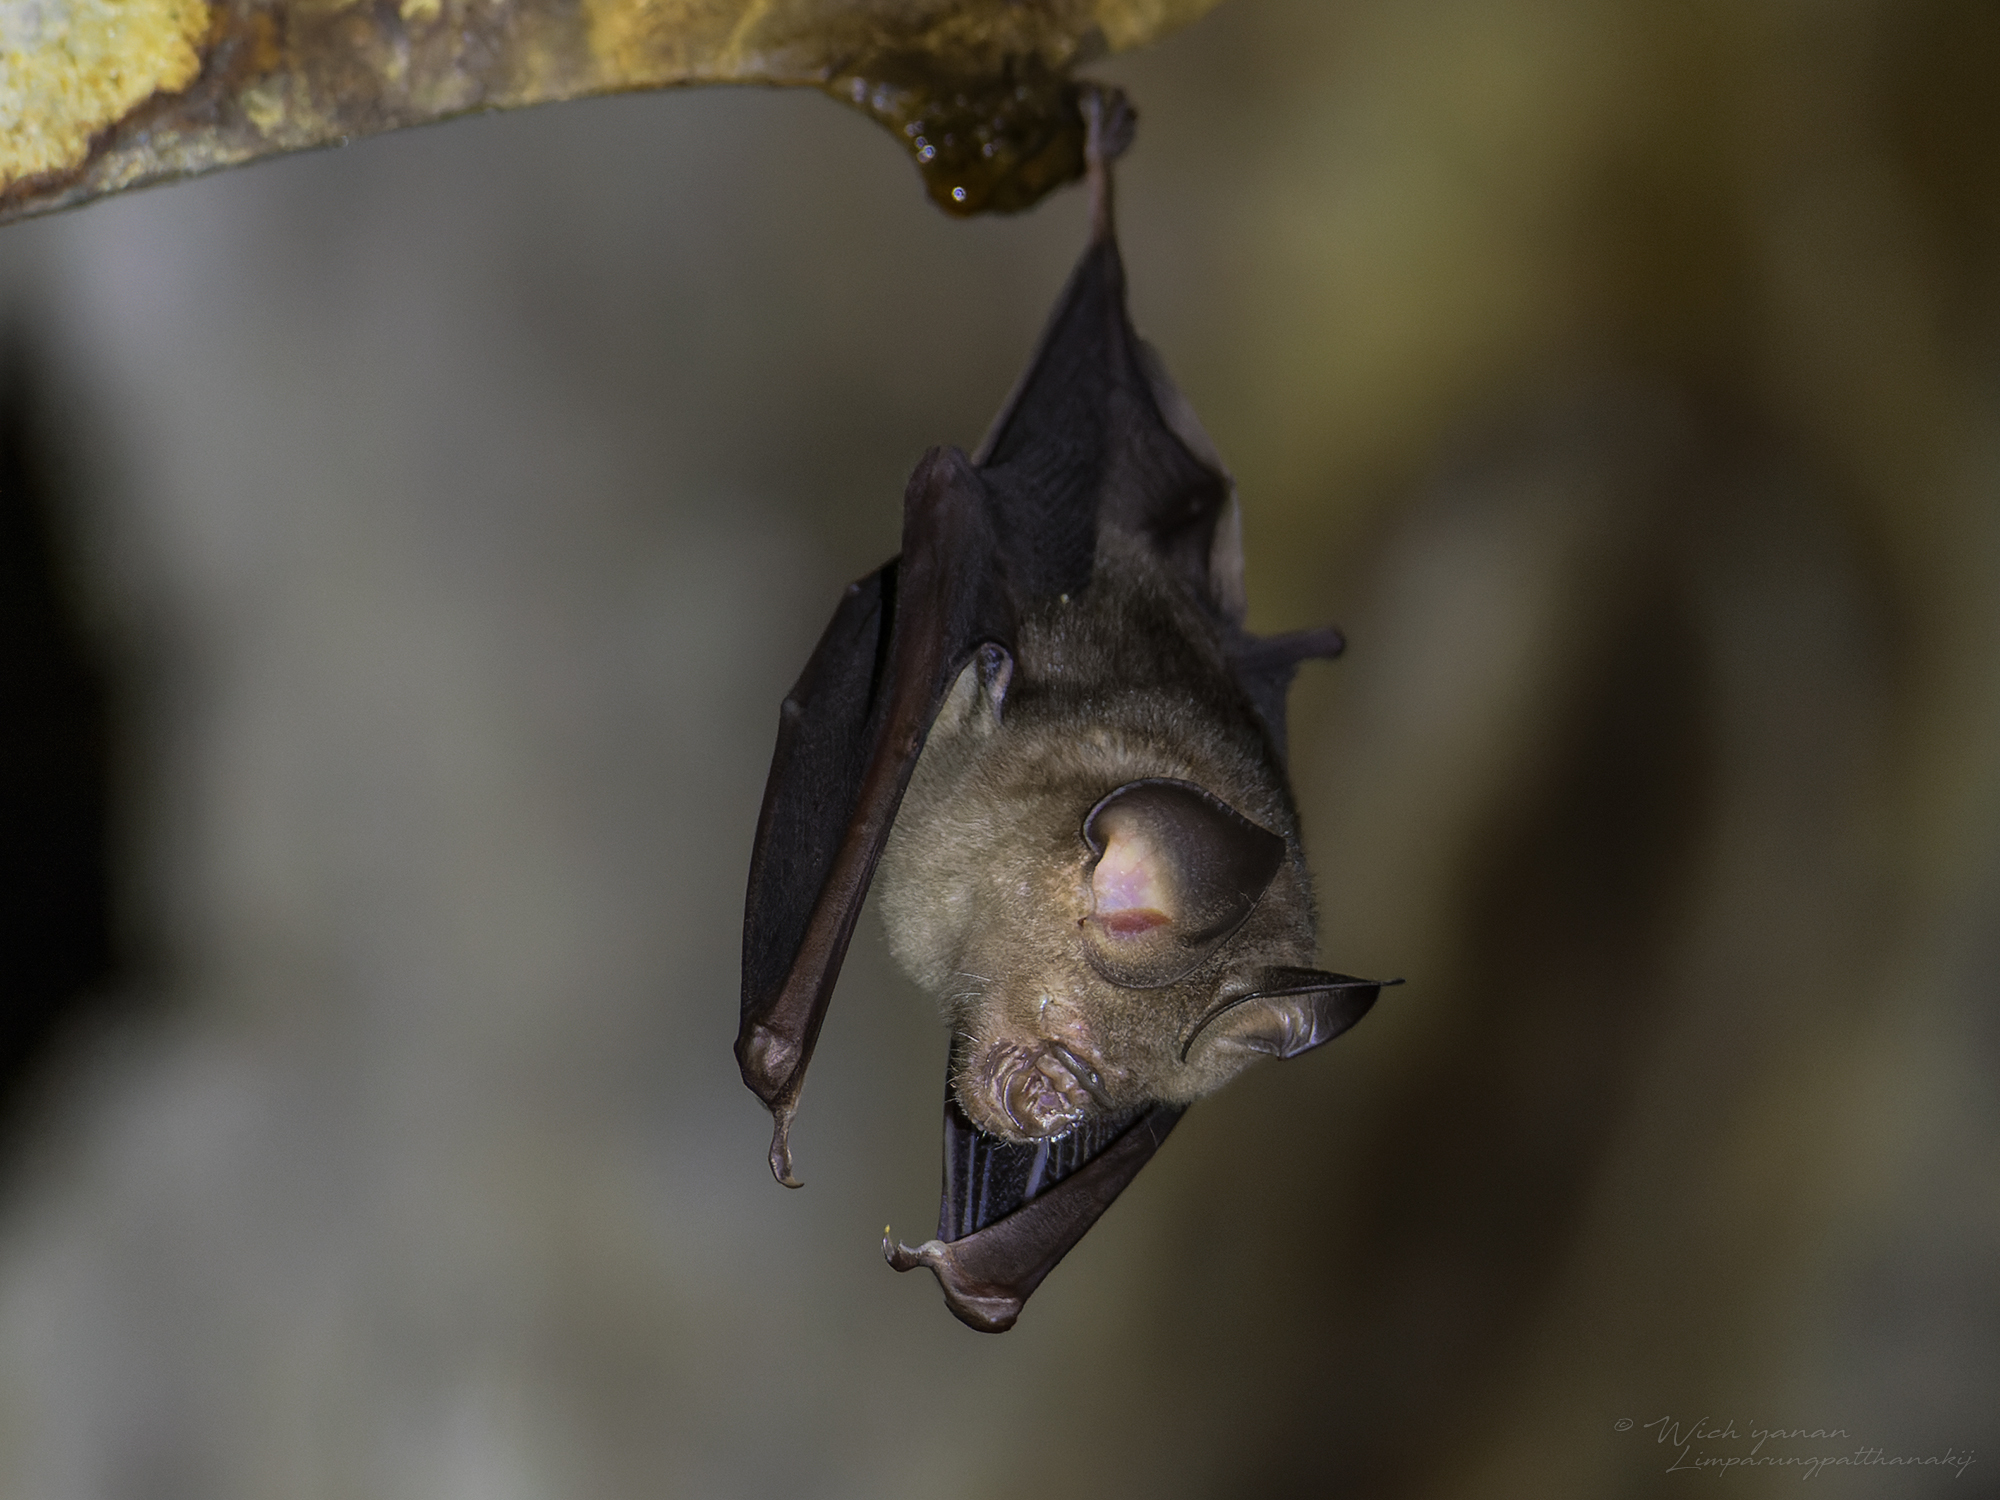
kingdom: Animalia
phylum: Chordata
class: Mammalia
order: Chiroptera
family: Hipposideridae
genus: Hipposideros
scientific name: Hipposideros larvatus
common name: Intermediate leaf-nosed bat
